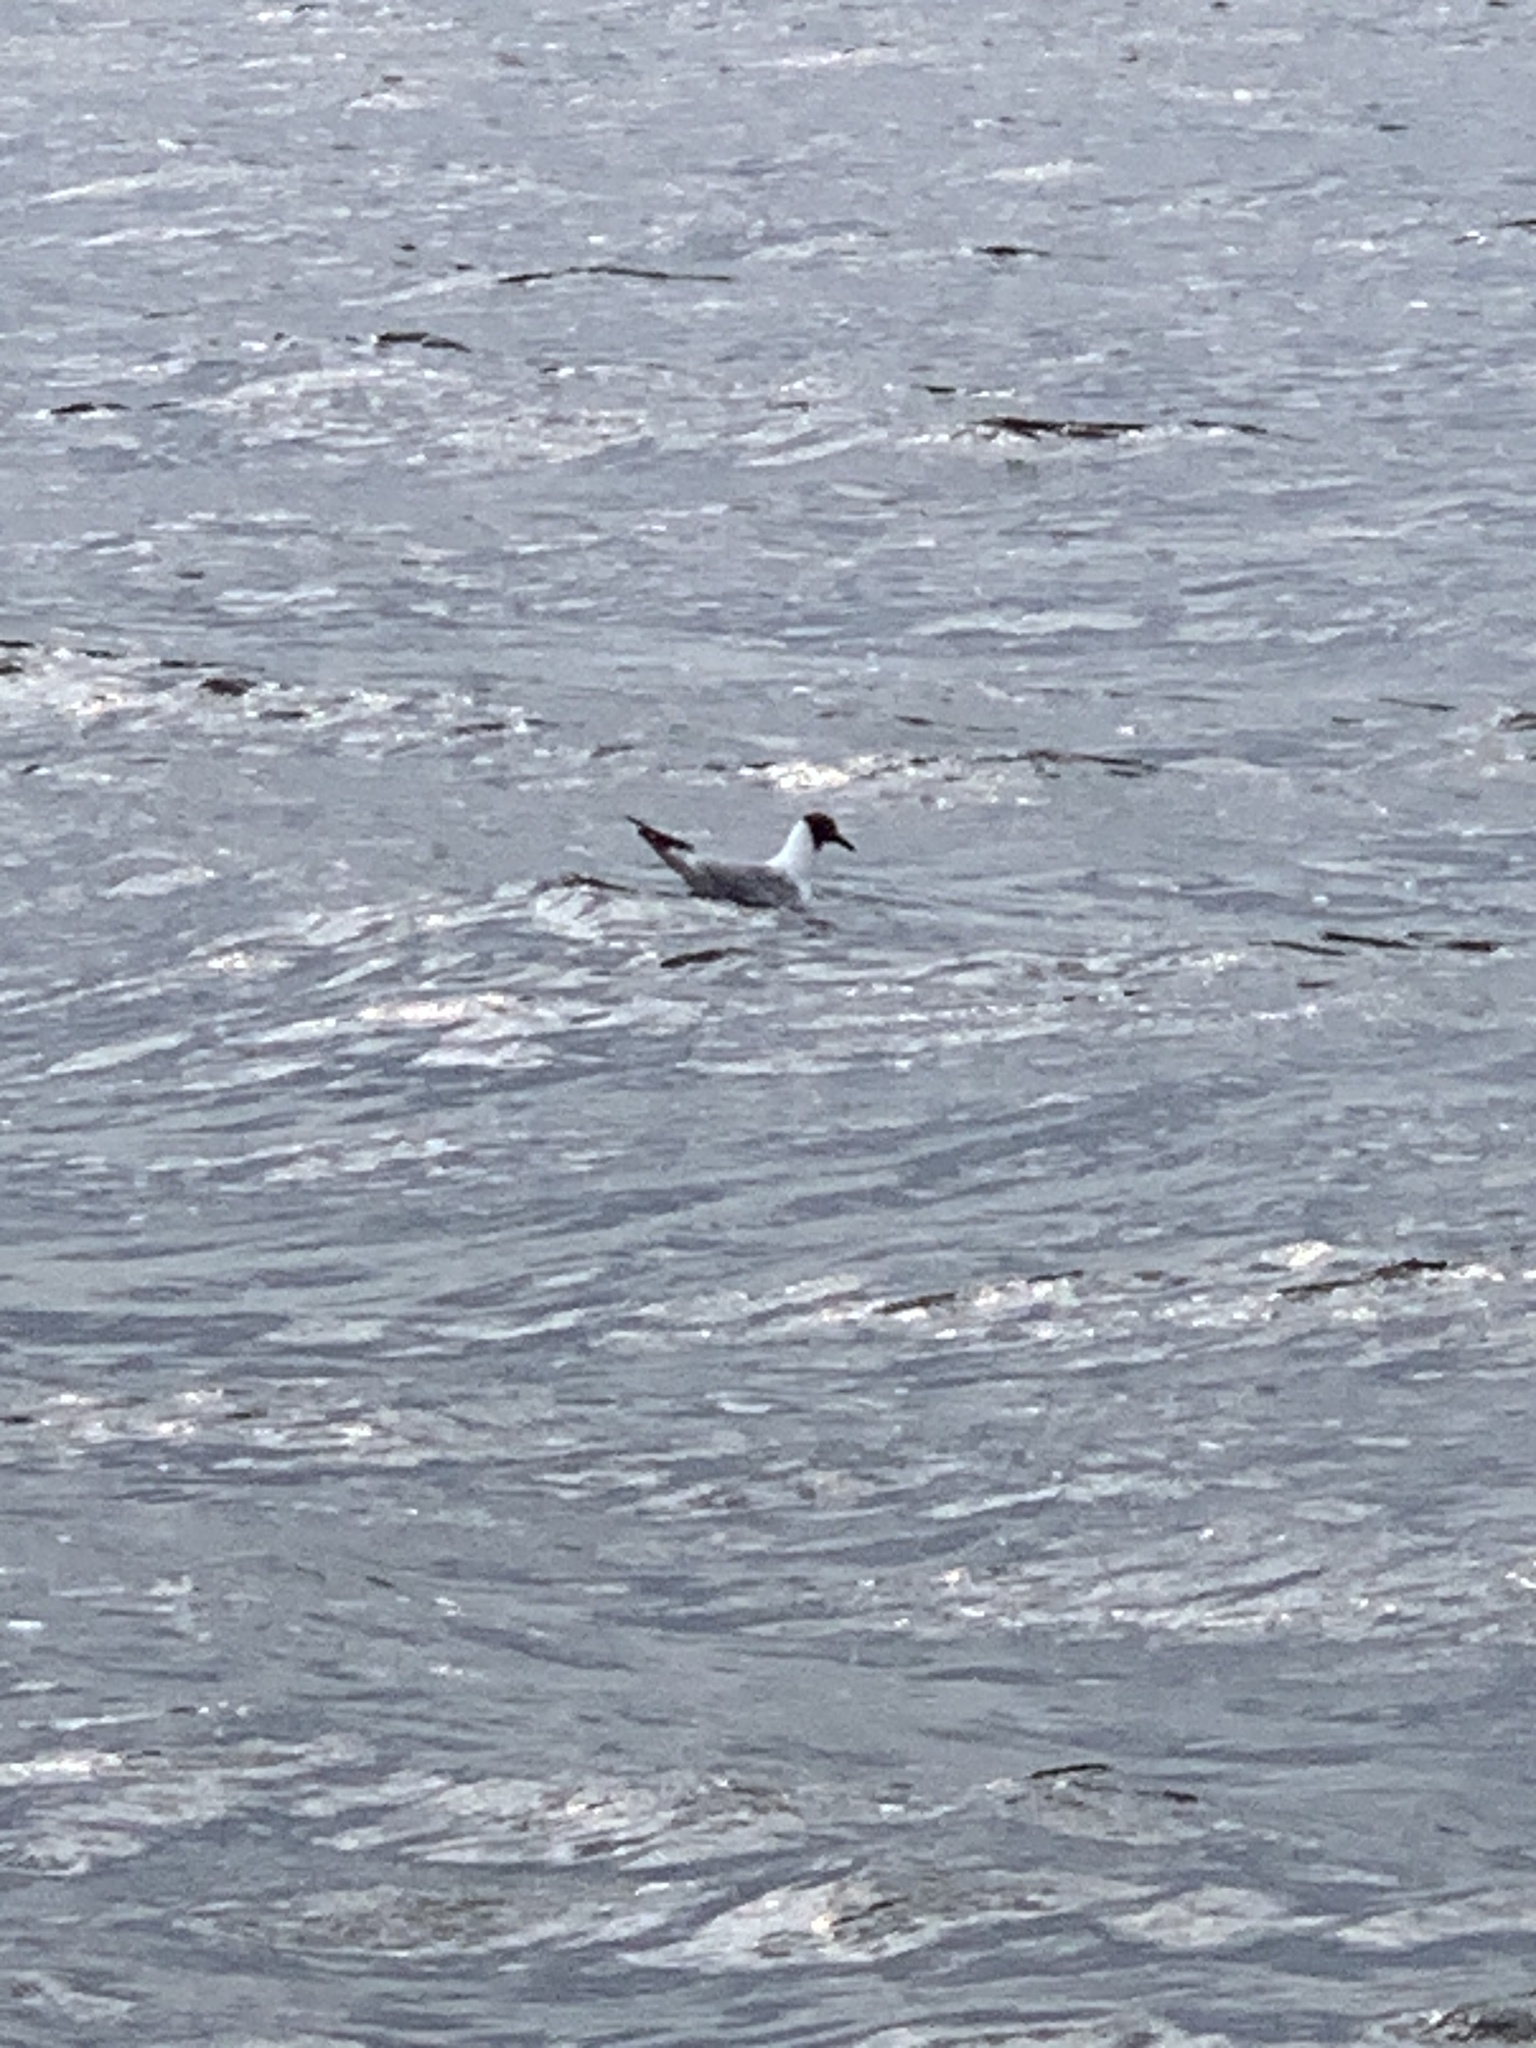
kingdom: Animalia
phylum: Chordata
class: Aves
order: Charadriiformes
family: Laridae
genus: Chroicocephalus
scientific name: Chroicocephalus ridibundus
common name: Black-headed gull
